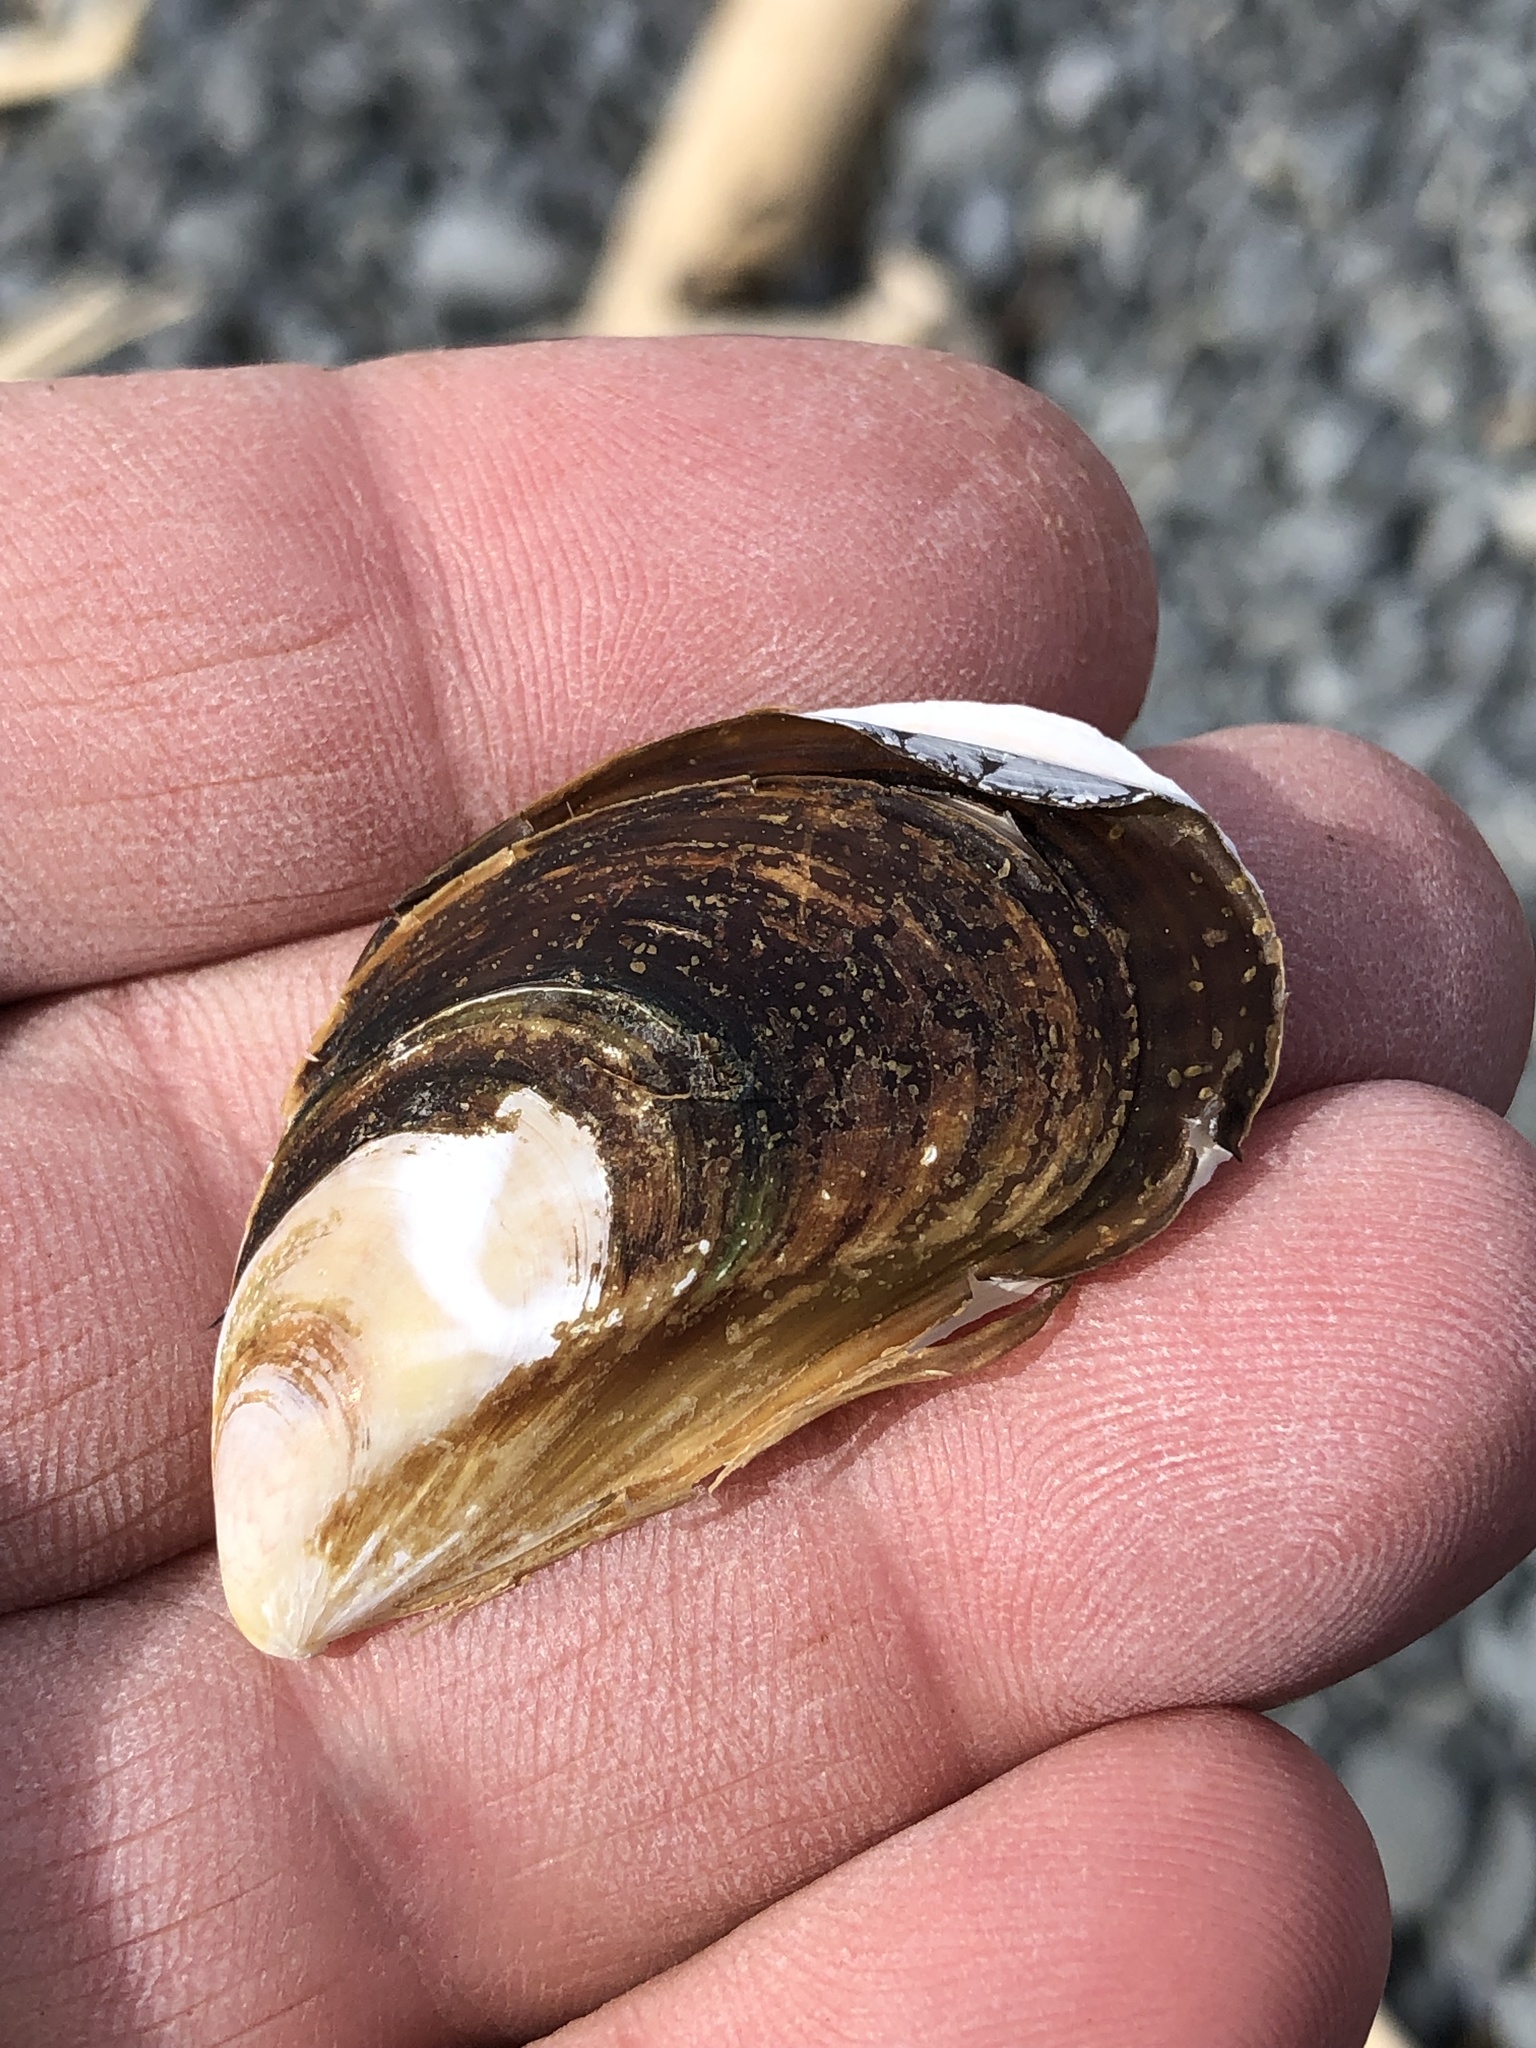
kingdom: Animalia
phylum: Mollusca
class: Bivalvia
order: Mytilida
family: Mytilidae
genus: Perna
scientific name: Perna canaliculus
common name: New zealand greenshelltm
